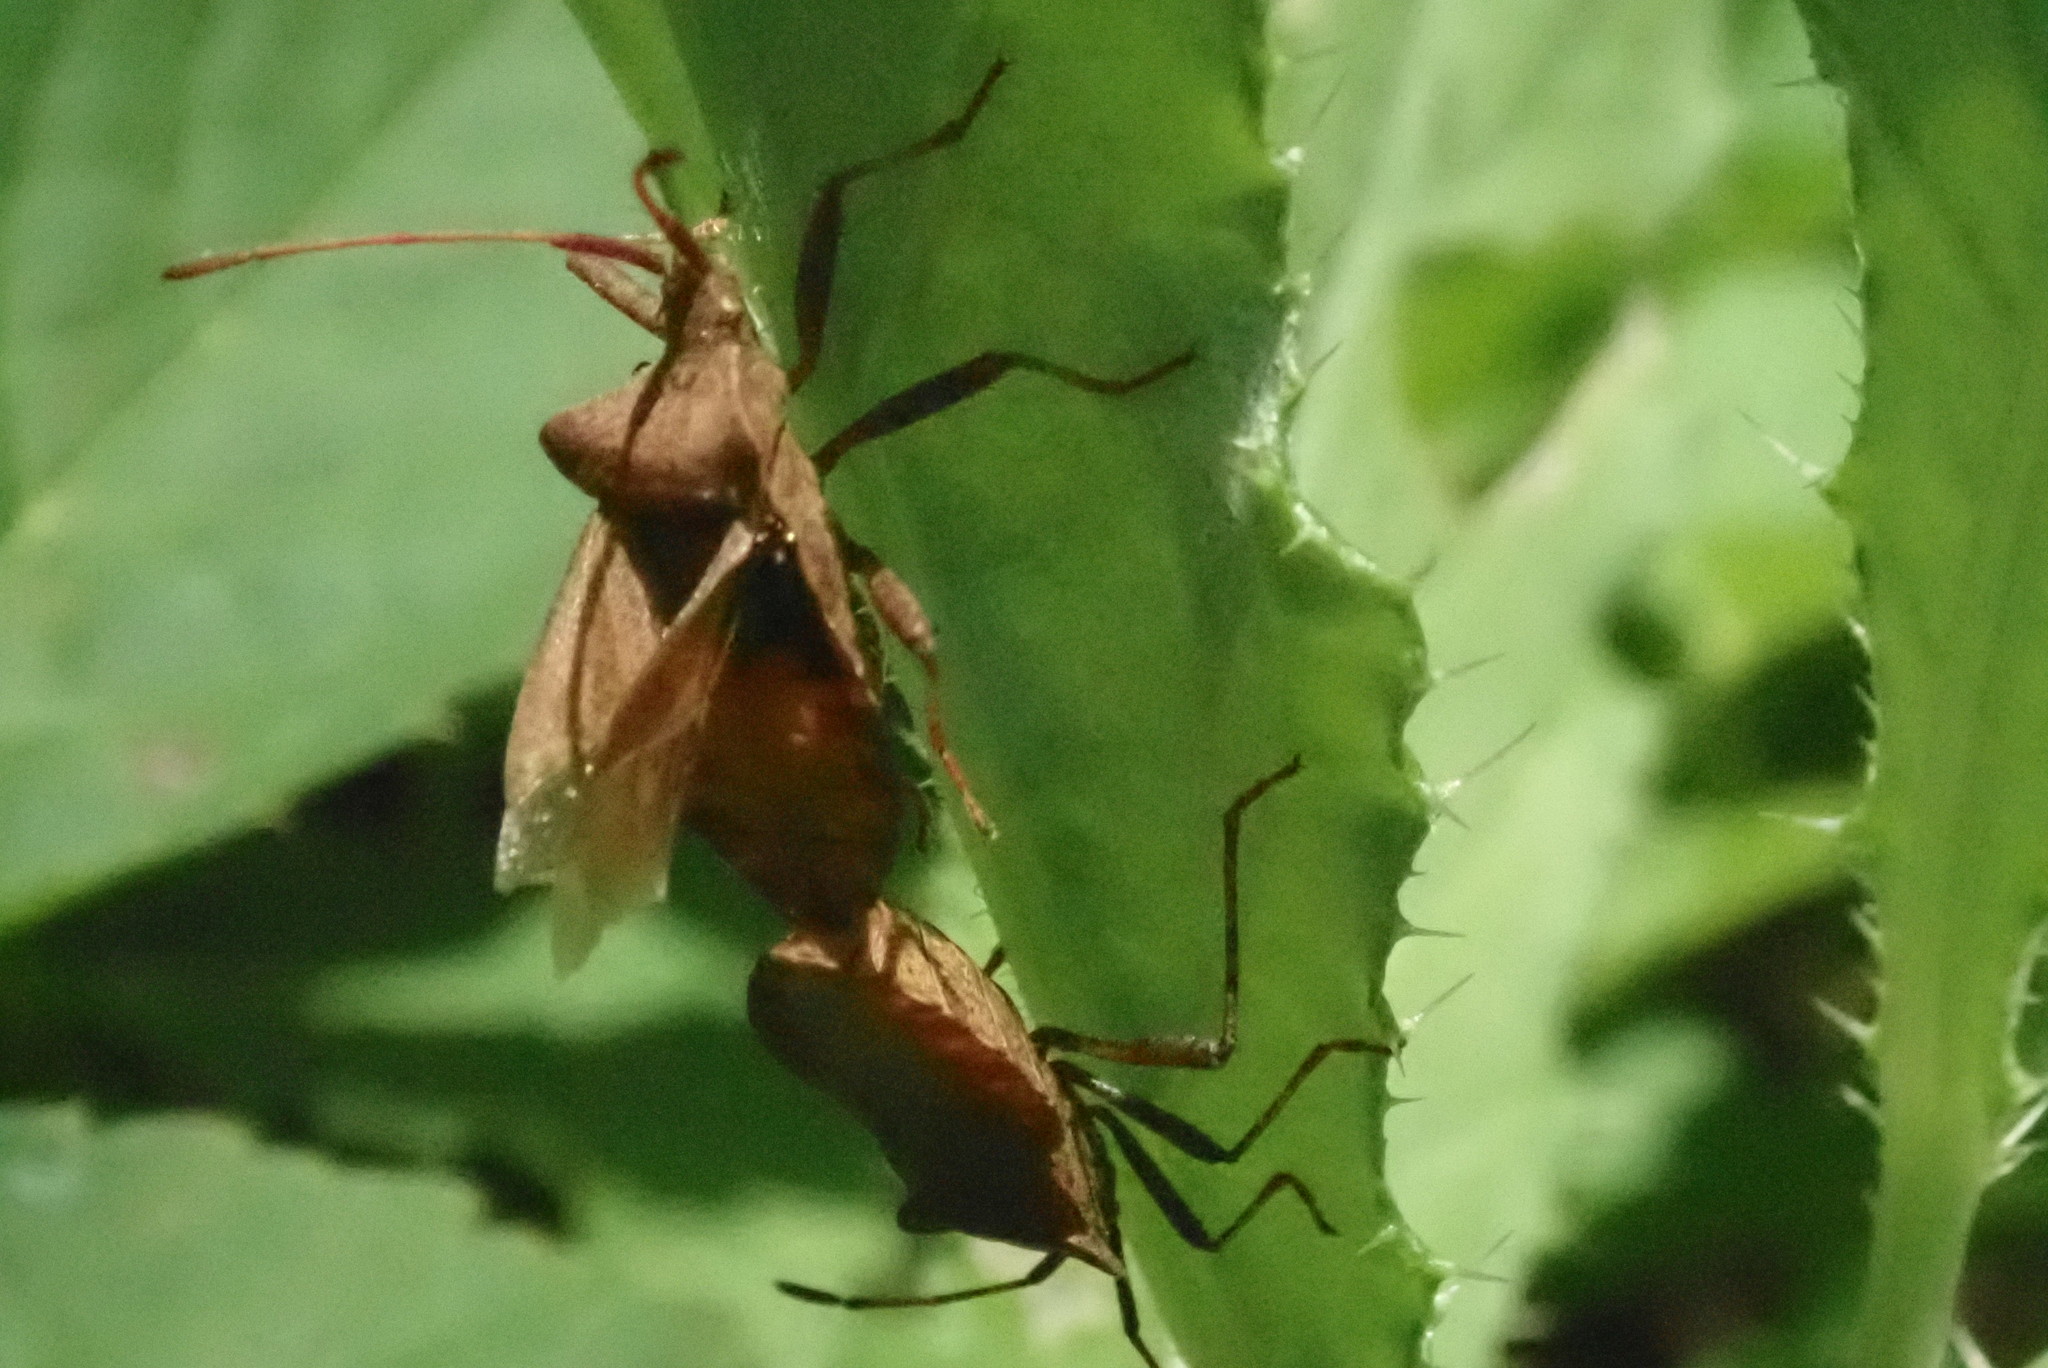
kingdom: Animalia
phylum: Arthropoda
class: Insecta
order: Hemiptera
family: Coreidae
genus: Coreus
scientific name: Coreus marginatus
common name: Dock bug
